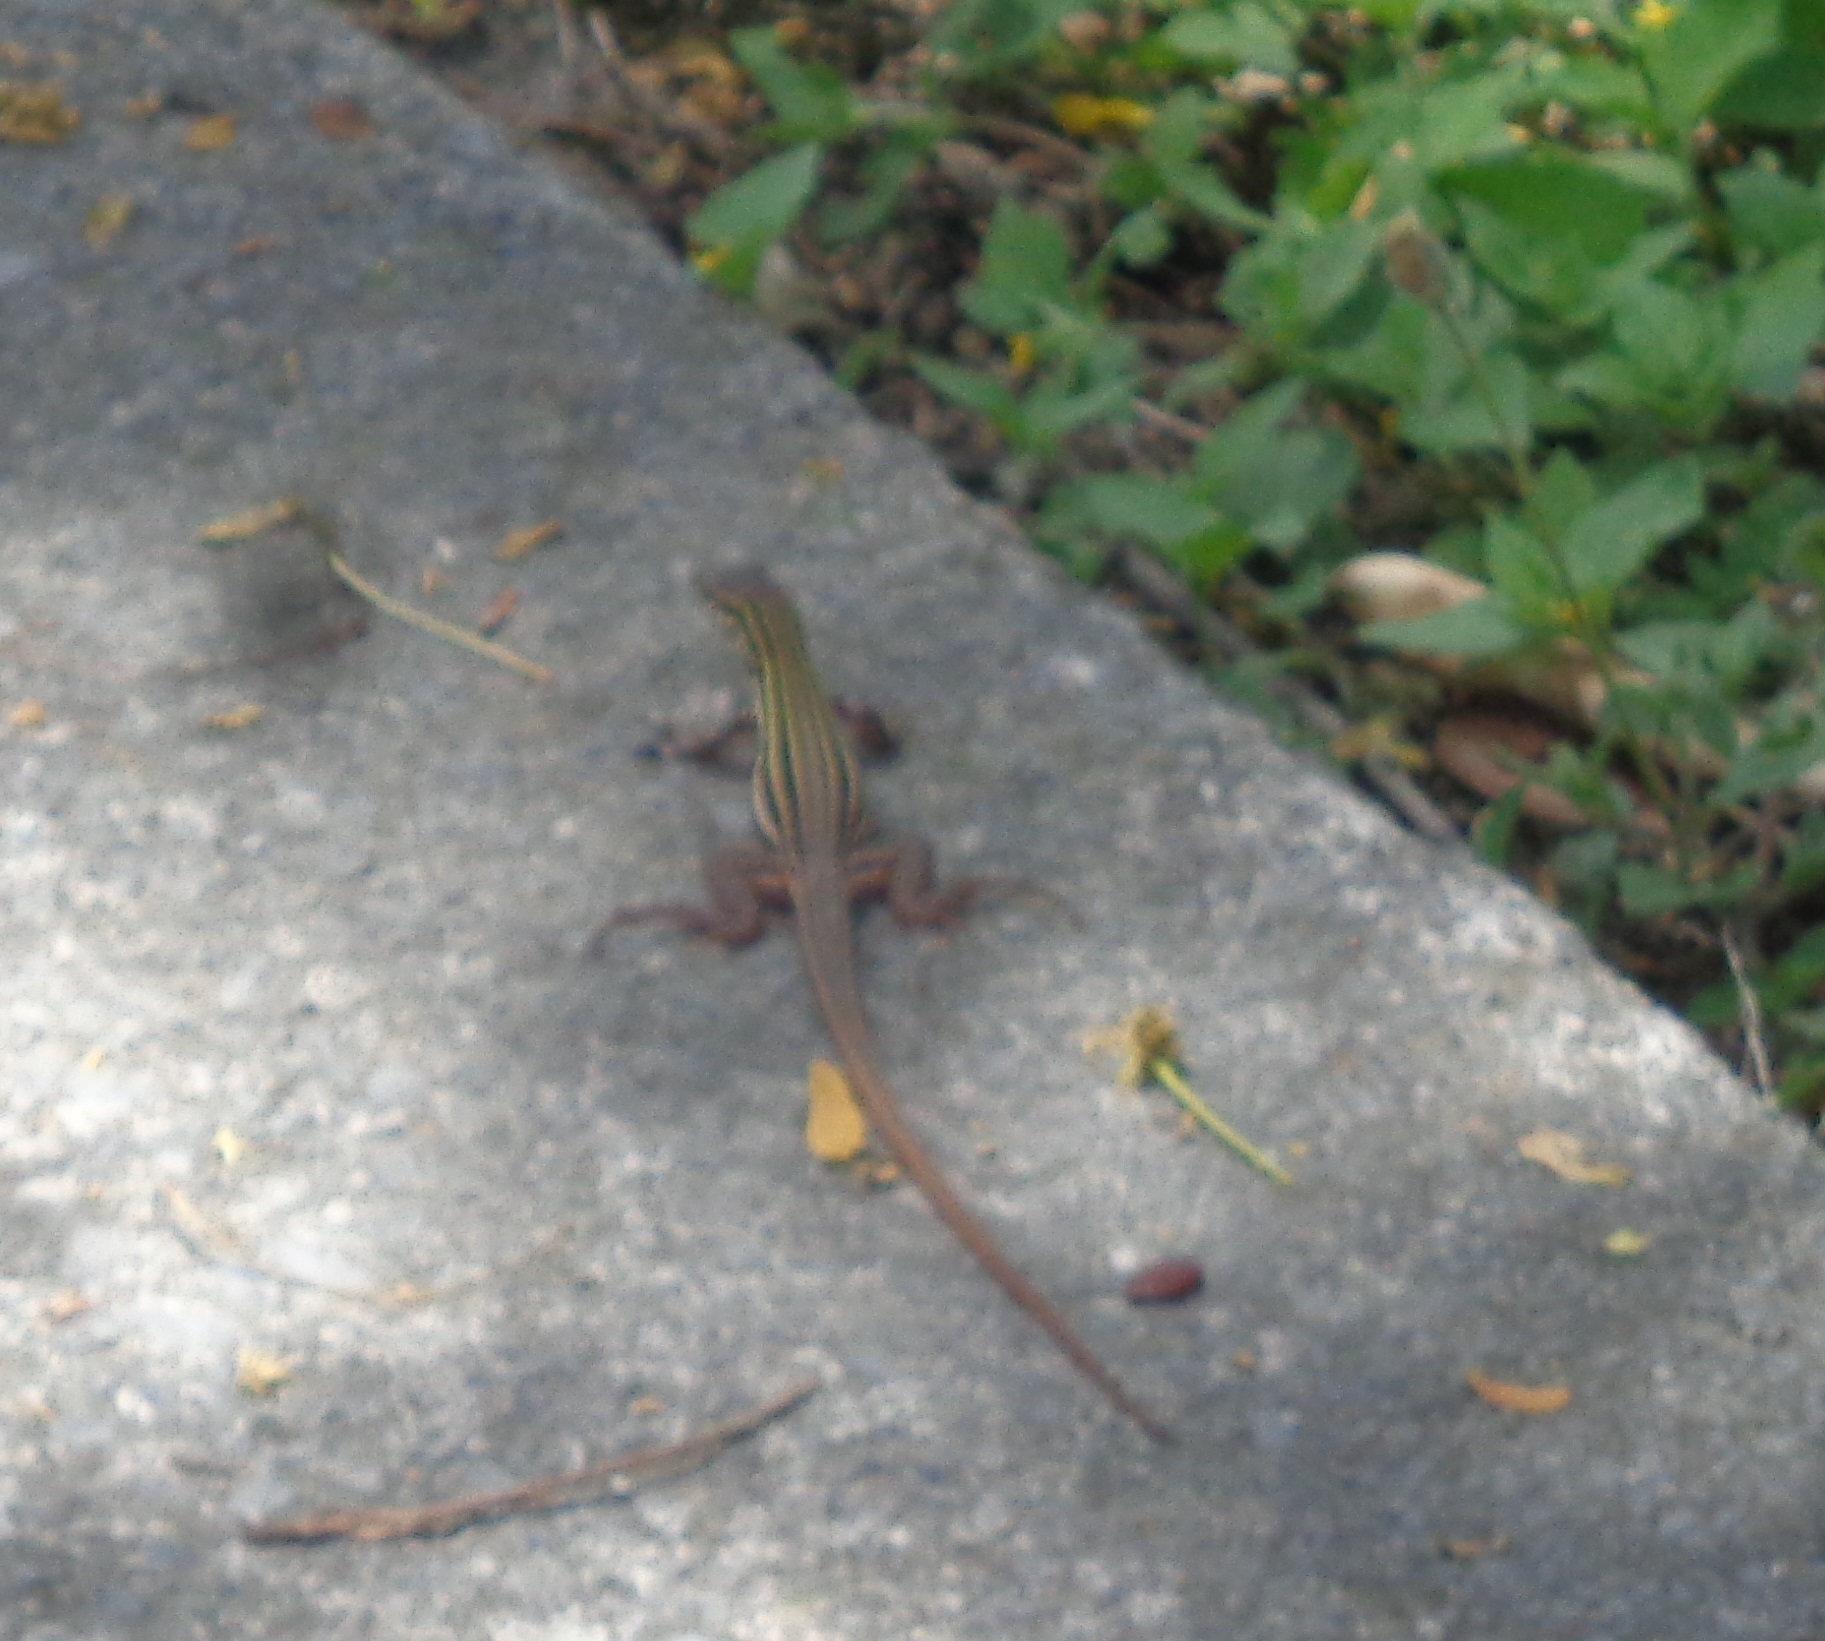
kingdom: Animalia
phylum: Chordata
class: Squamata
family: Teiidae
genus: Aspidoscelis
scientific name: Aspidoscelis gularis
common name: Eastern spotted whiptail
